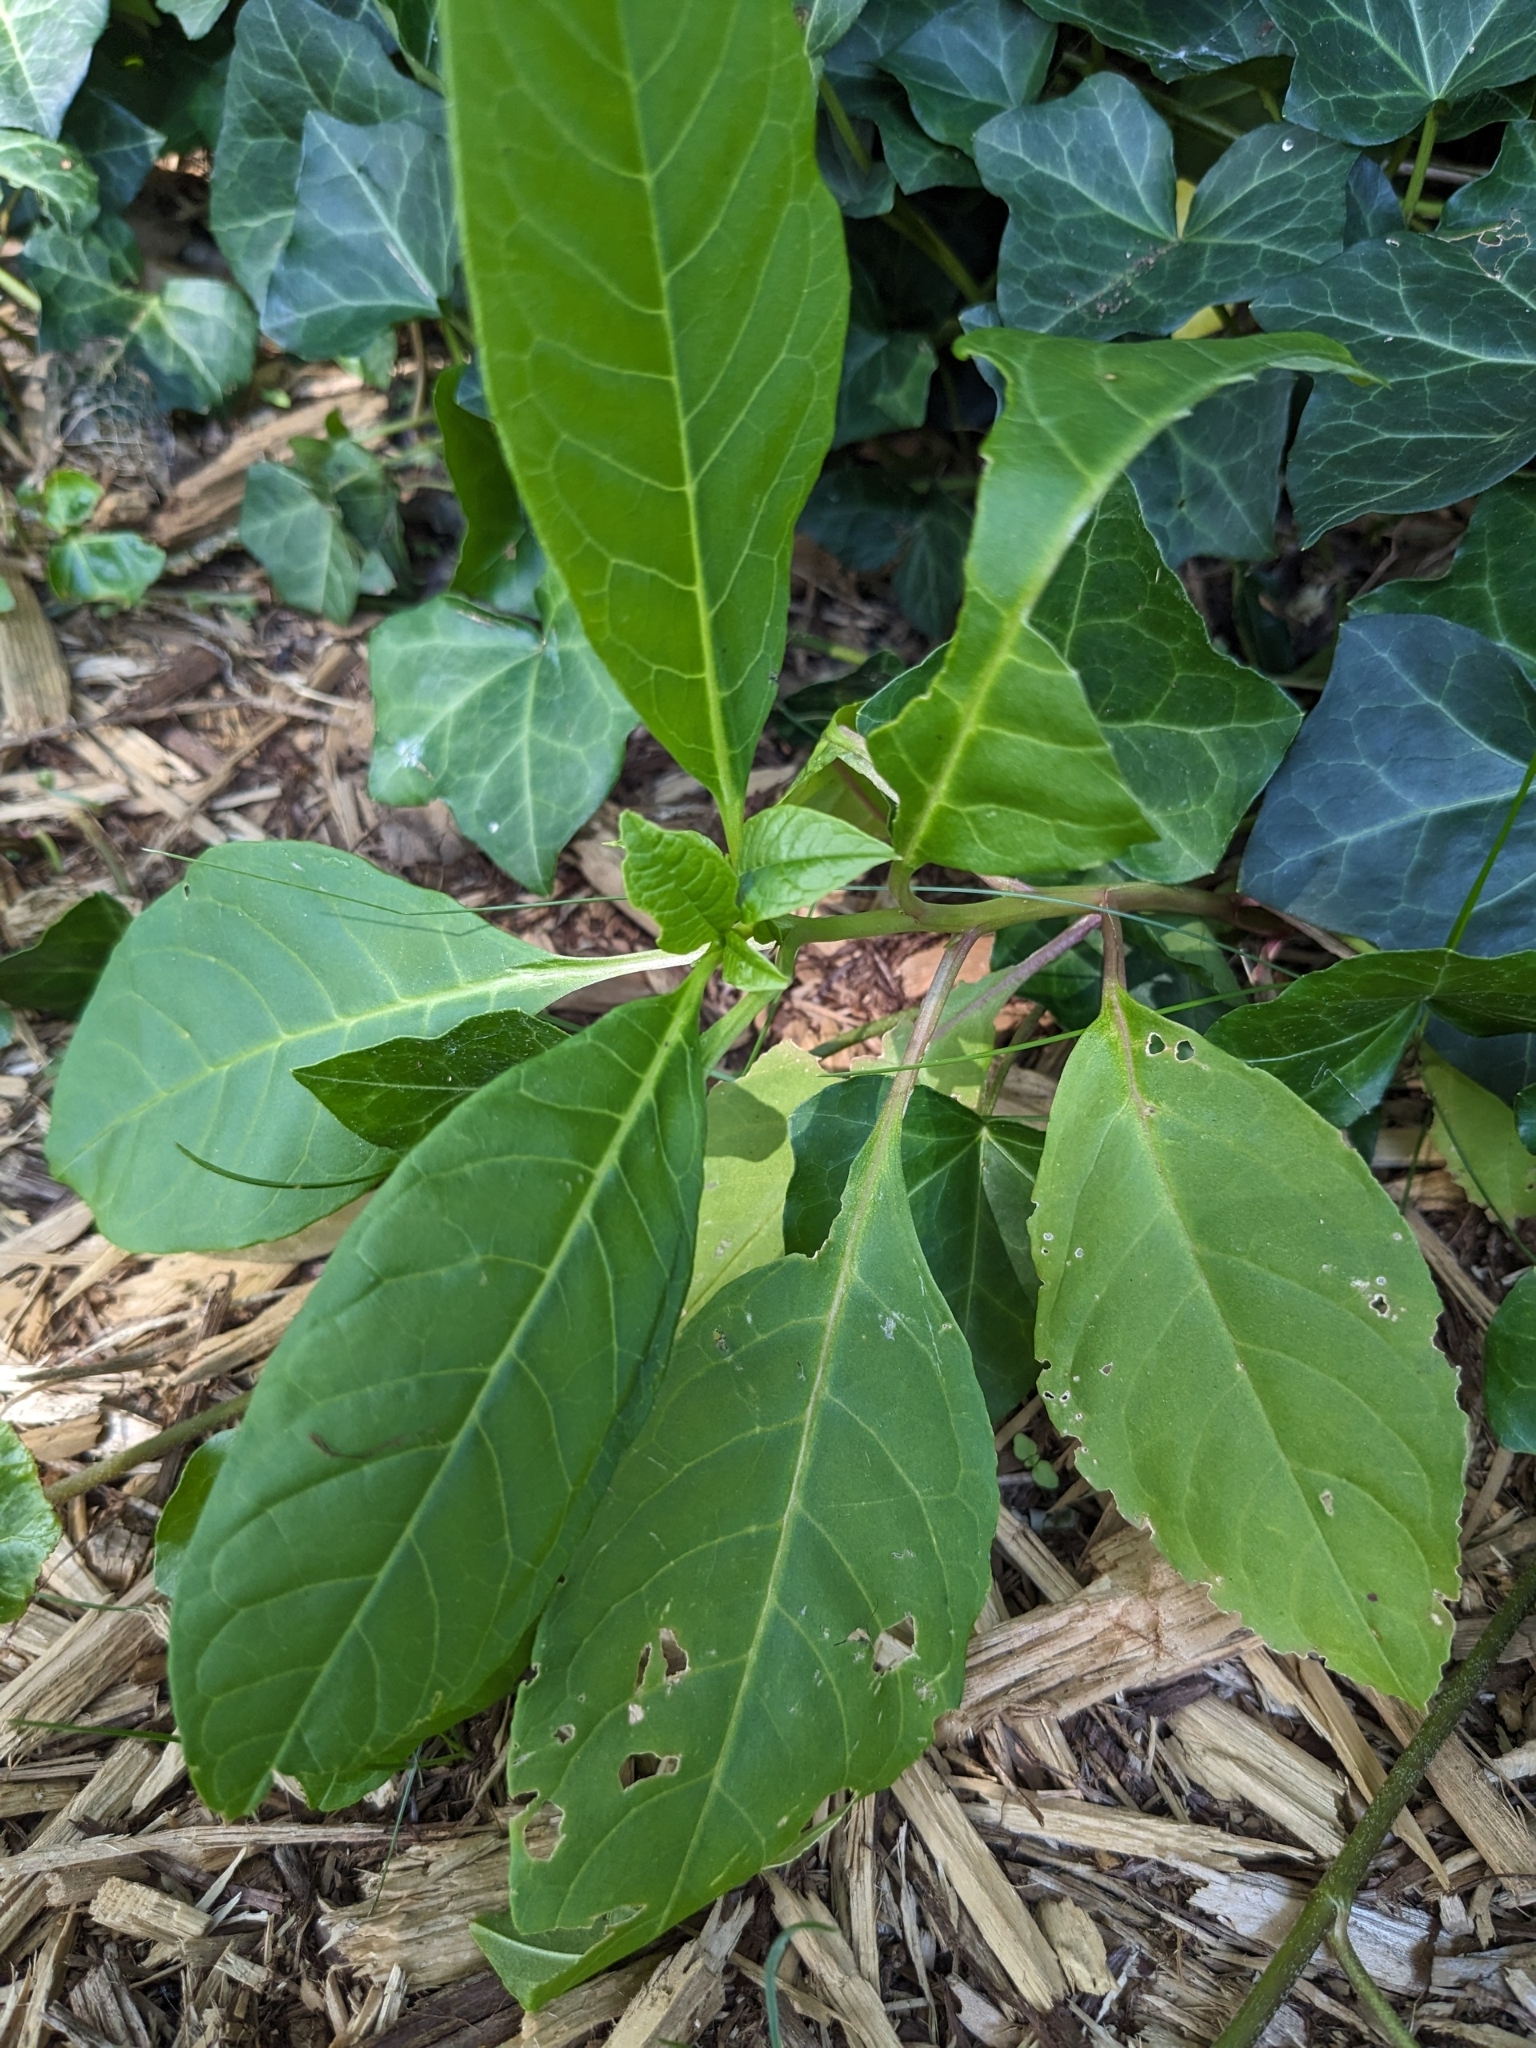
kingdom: Plantae
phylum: Tracheophyta
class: Magnoliopsida
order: Caryophyllales
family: Phytolaccaceae
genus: Phytolacca
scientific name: Phytolacca americana
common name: American pokeweed
